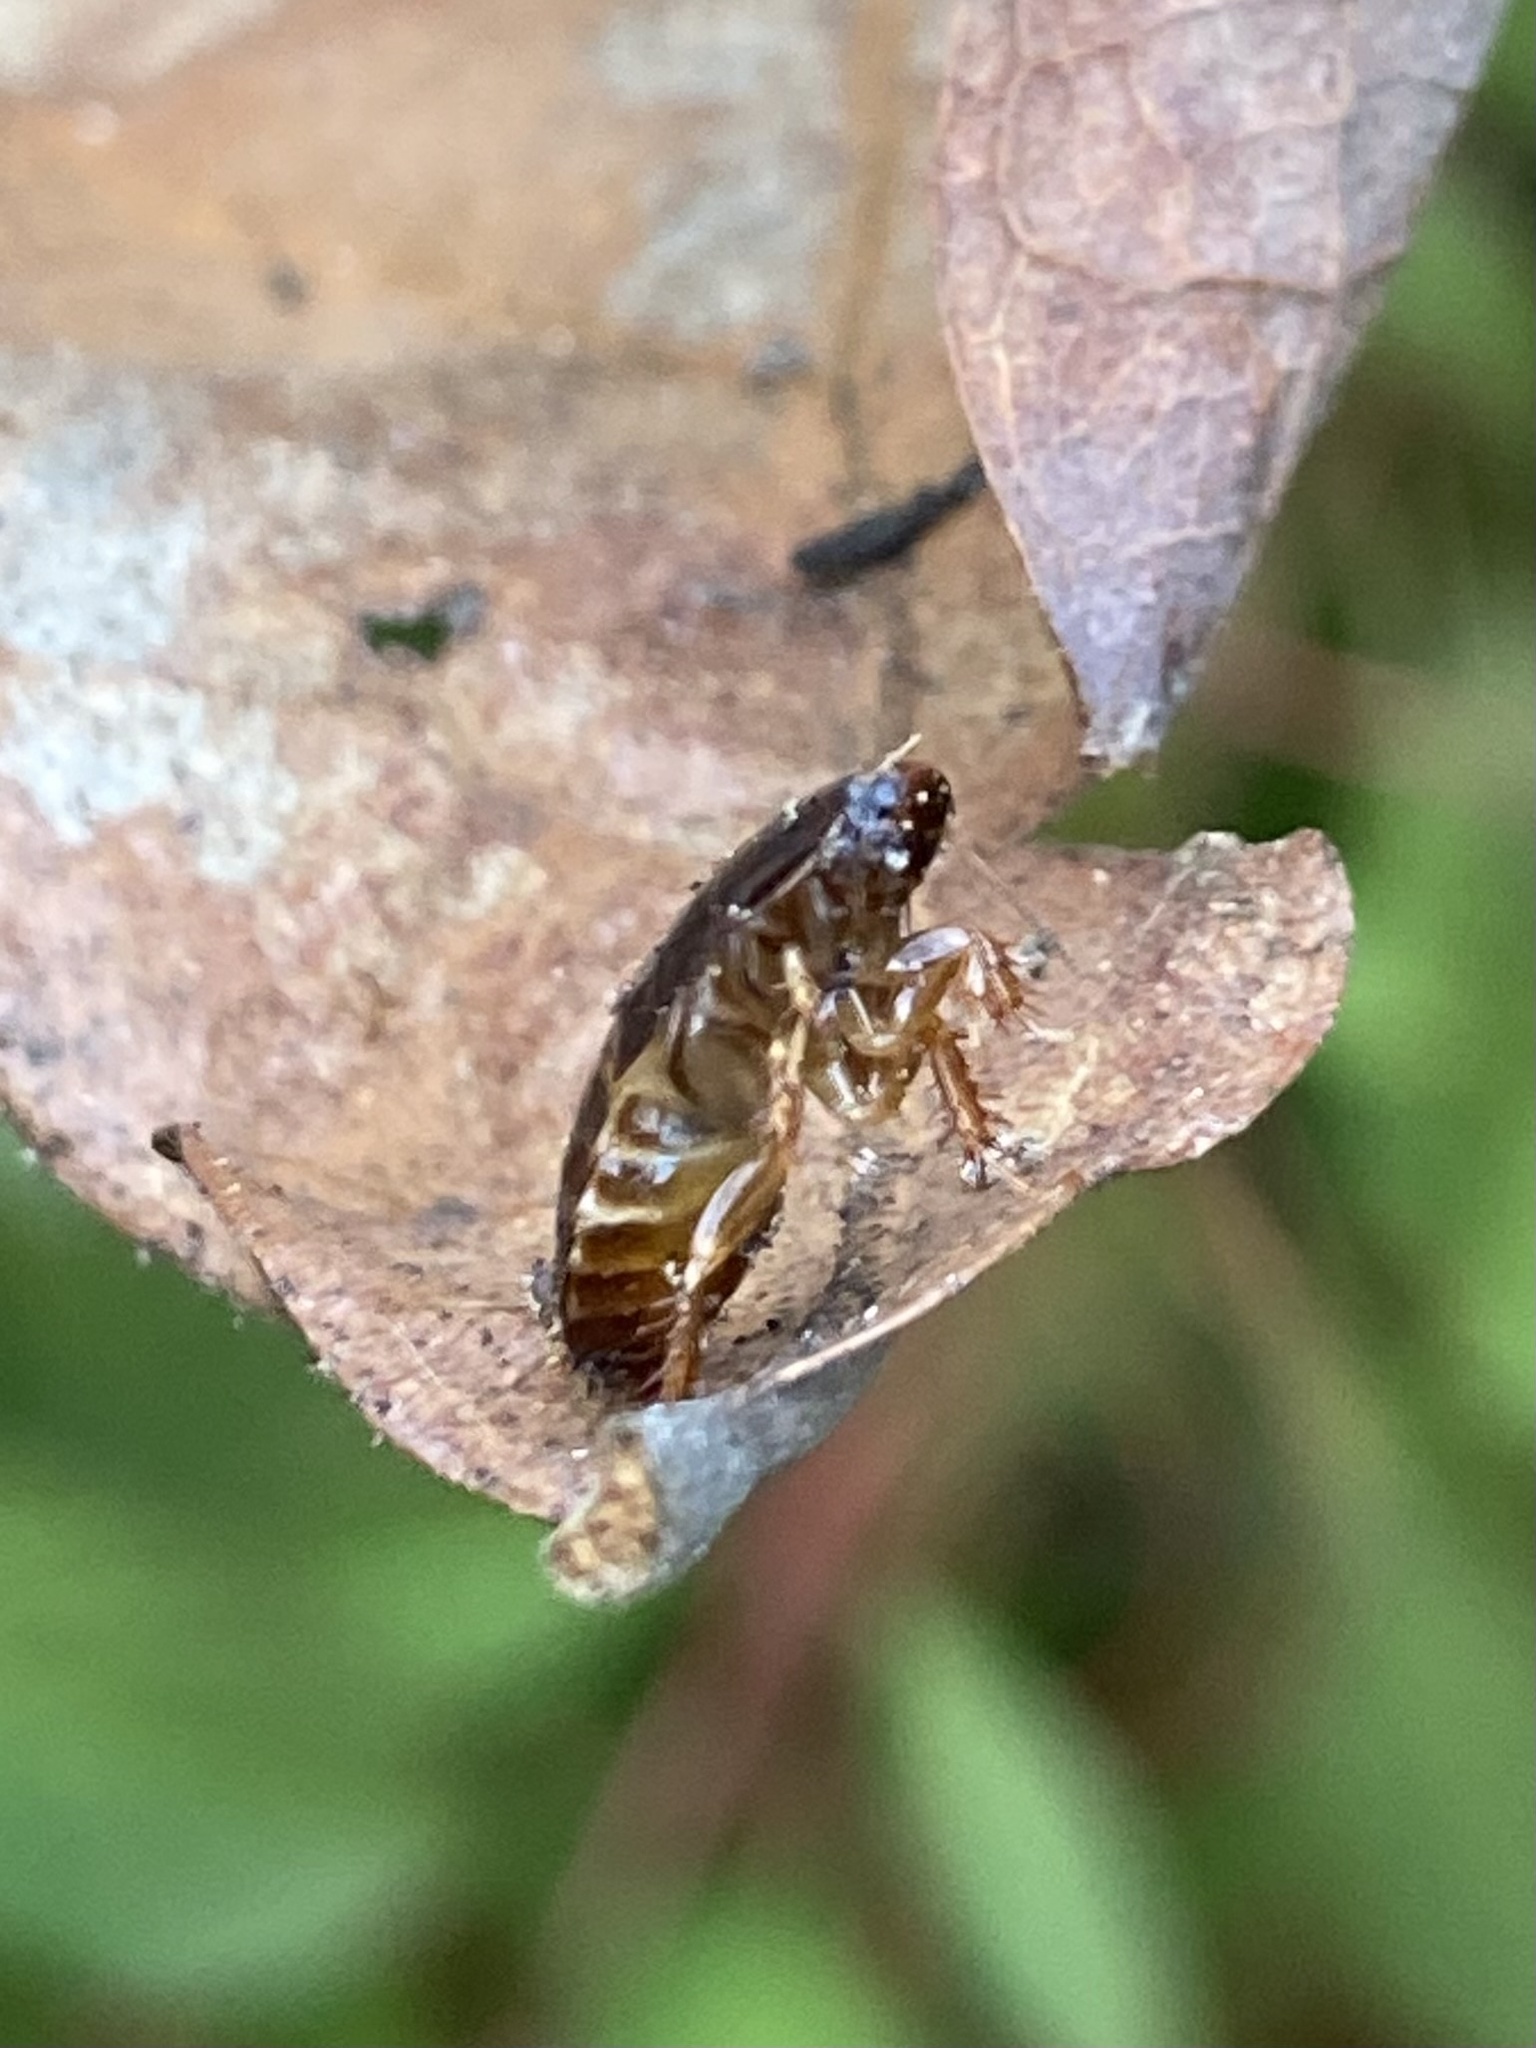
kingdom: Animalia
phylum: Arthropoda
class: Insecta
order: Blattodea
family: Blaberidae
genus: Pycnoscelus
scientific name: Pycnoscelus surinamensis
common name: Surinam cockroach
